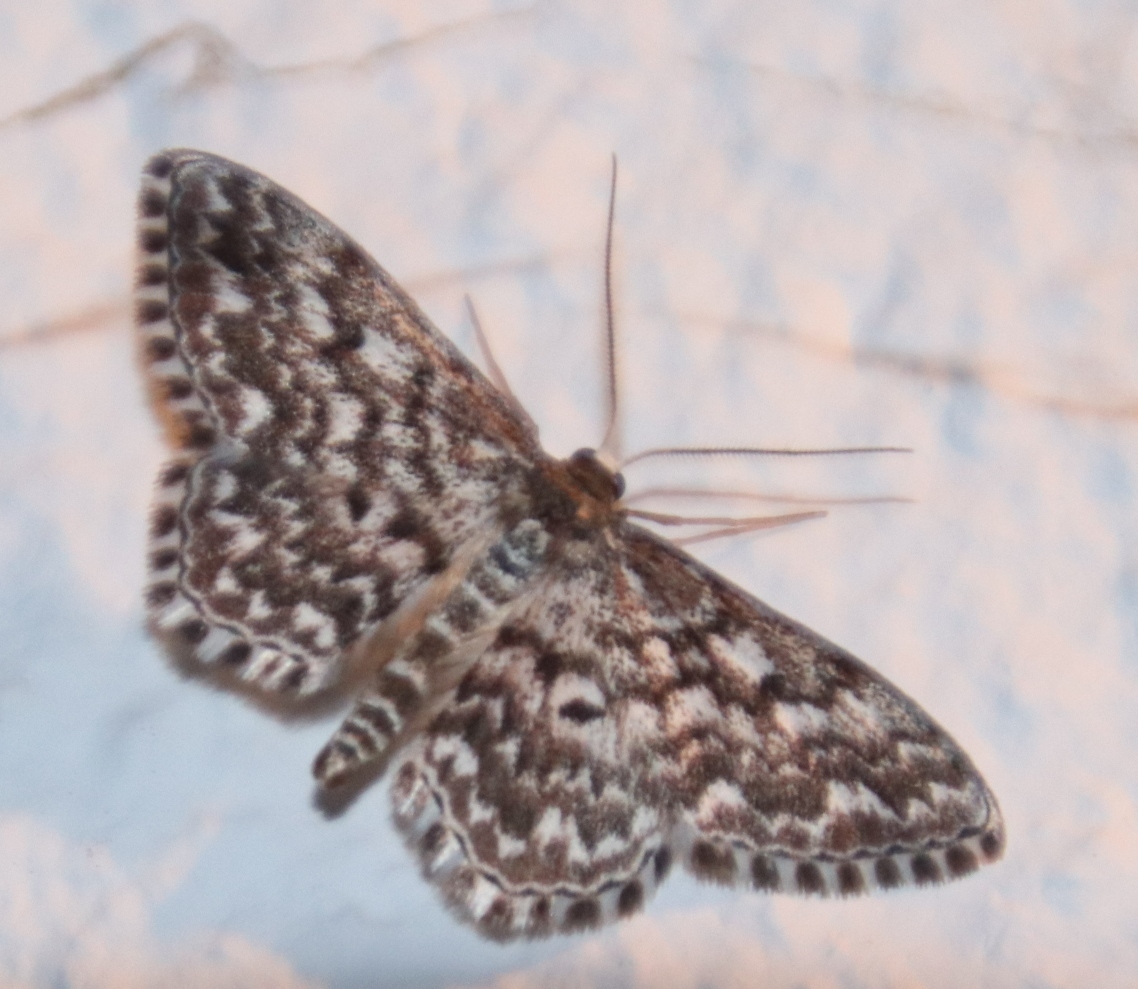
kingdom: Animalia
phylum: Arthropoda
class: Insecta
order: Lepidoptera
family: Geometridae
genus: Scopula
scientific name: Scopula inscriptata
